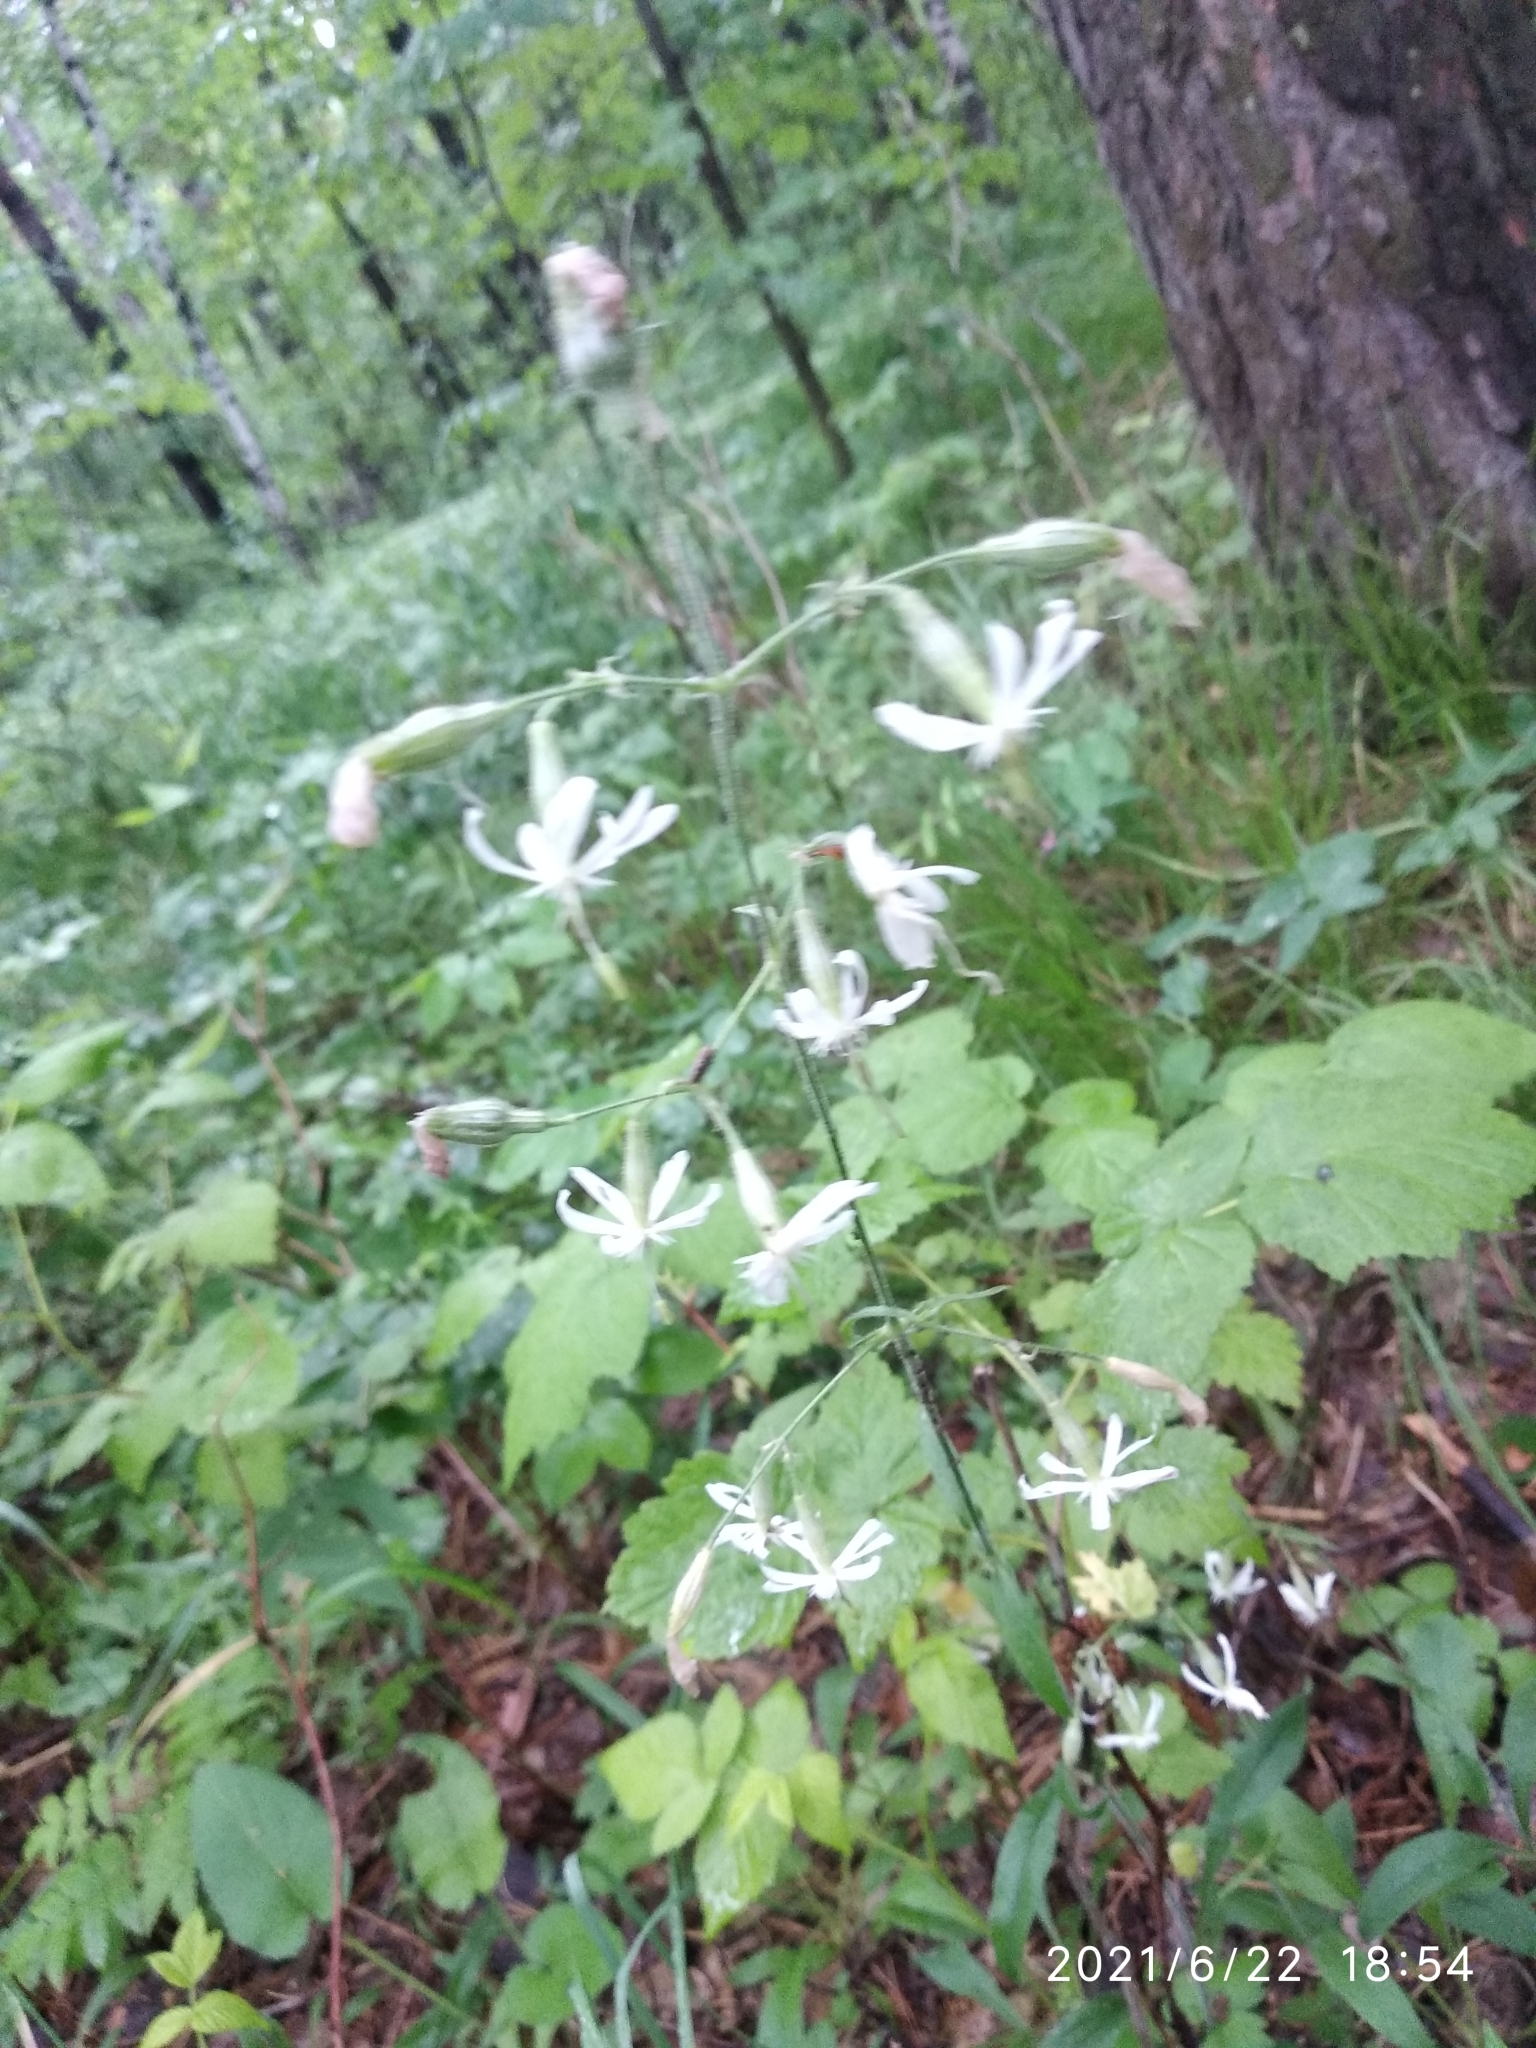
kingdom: Plantae
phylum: Tracheophyta
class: Magnoliopsida
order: Caryophyllales
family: Caryophyllaceae
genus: Silene
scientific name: Silene nutans
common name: Nottingham catchfly
